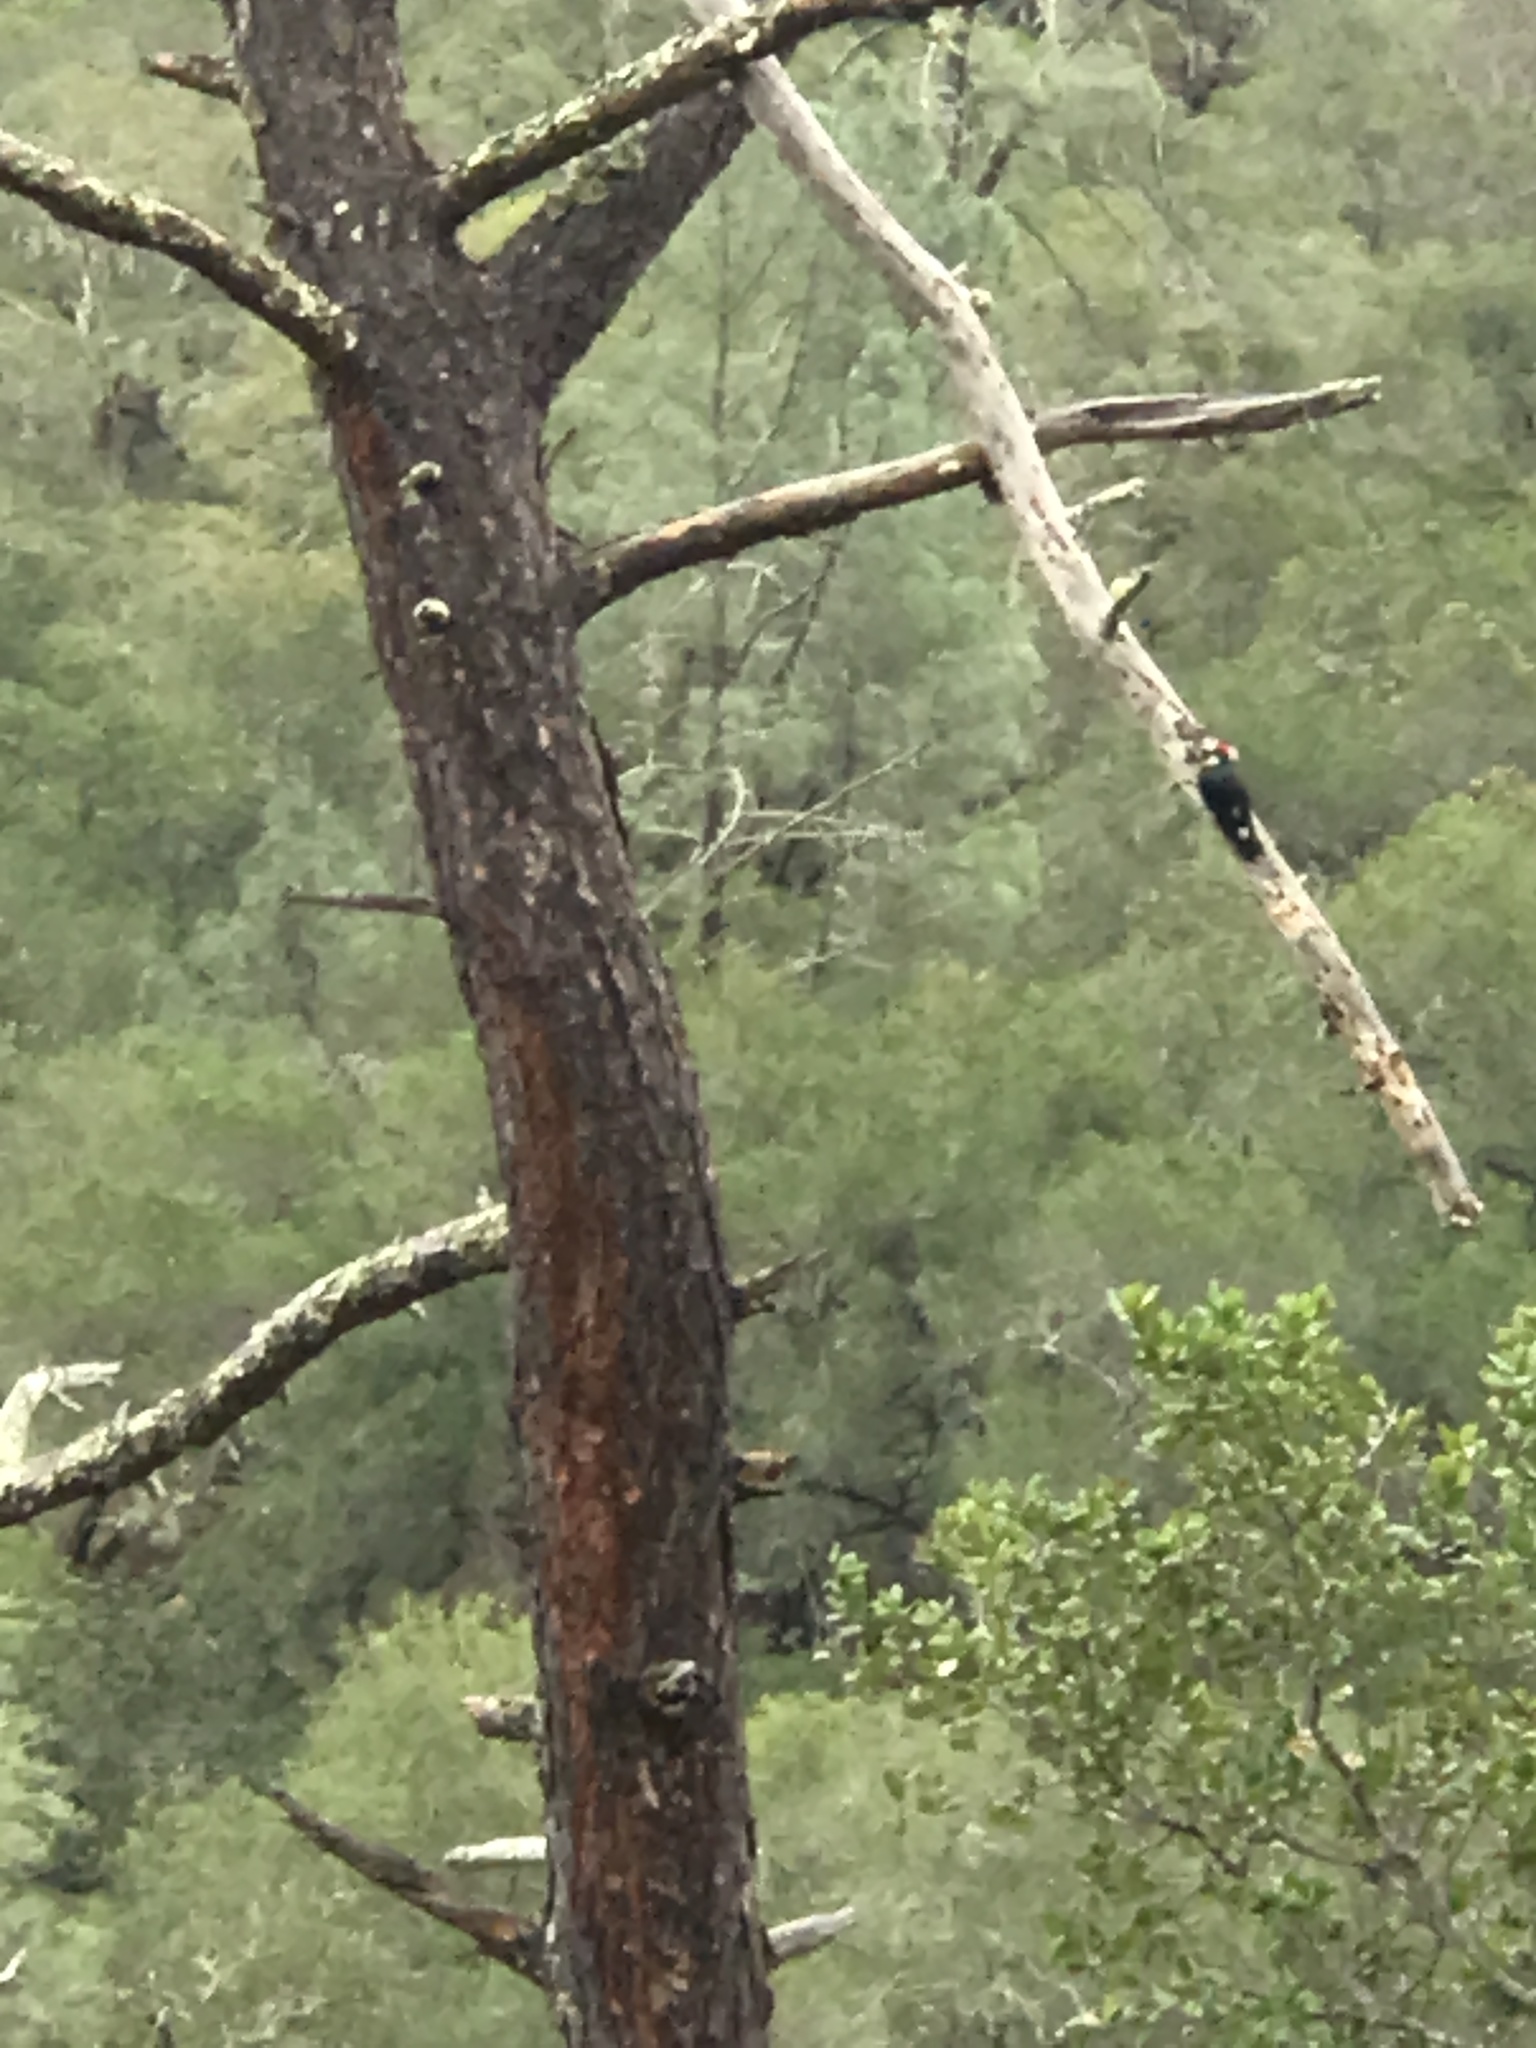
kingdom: Animalia
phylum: Chordata
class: Aves
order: Piciformes
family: Picidae
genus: Melanerpes
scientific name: Melanerpes formicivorus
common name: Acorn woodpecker
